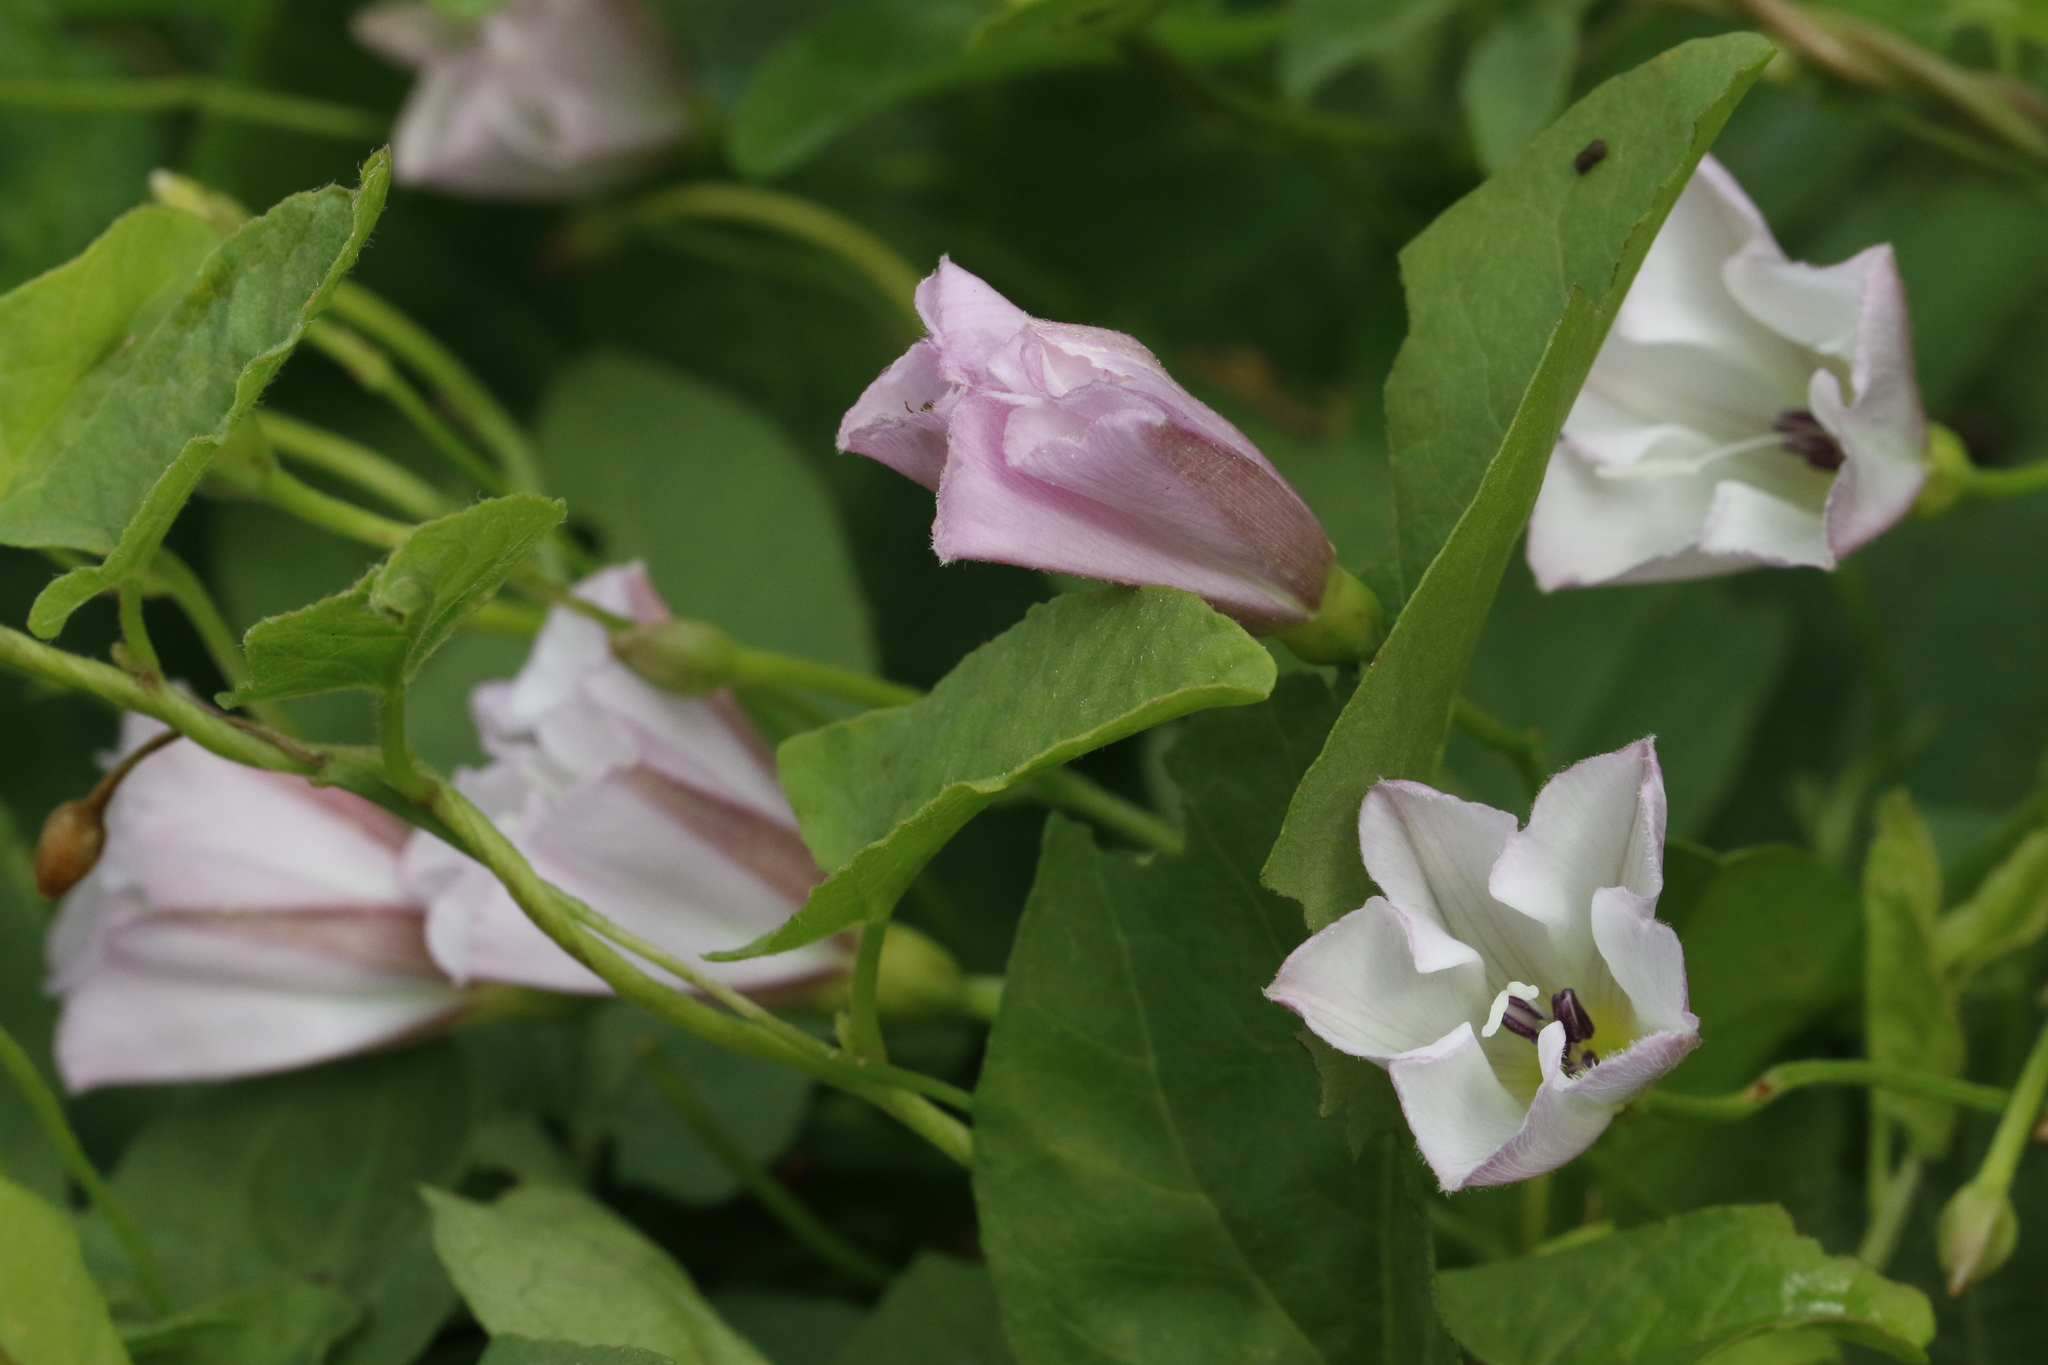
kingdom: Plantae
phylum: Tracheophyta
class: Magnoliopsida
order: Solanales
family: Convolvulaceae
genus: Convolvulus
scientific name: Convolvulus arvensis
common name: Field bindweed
